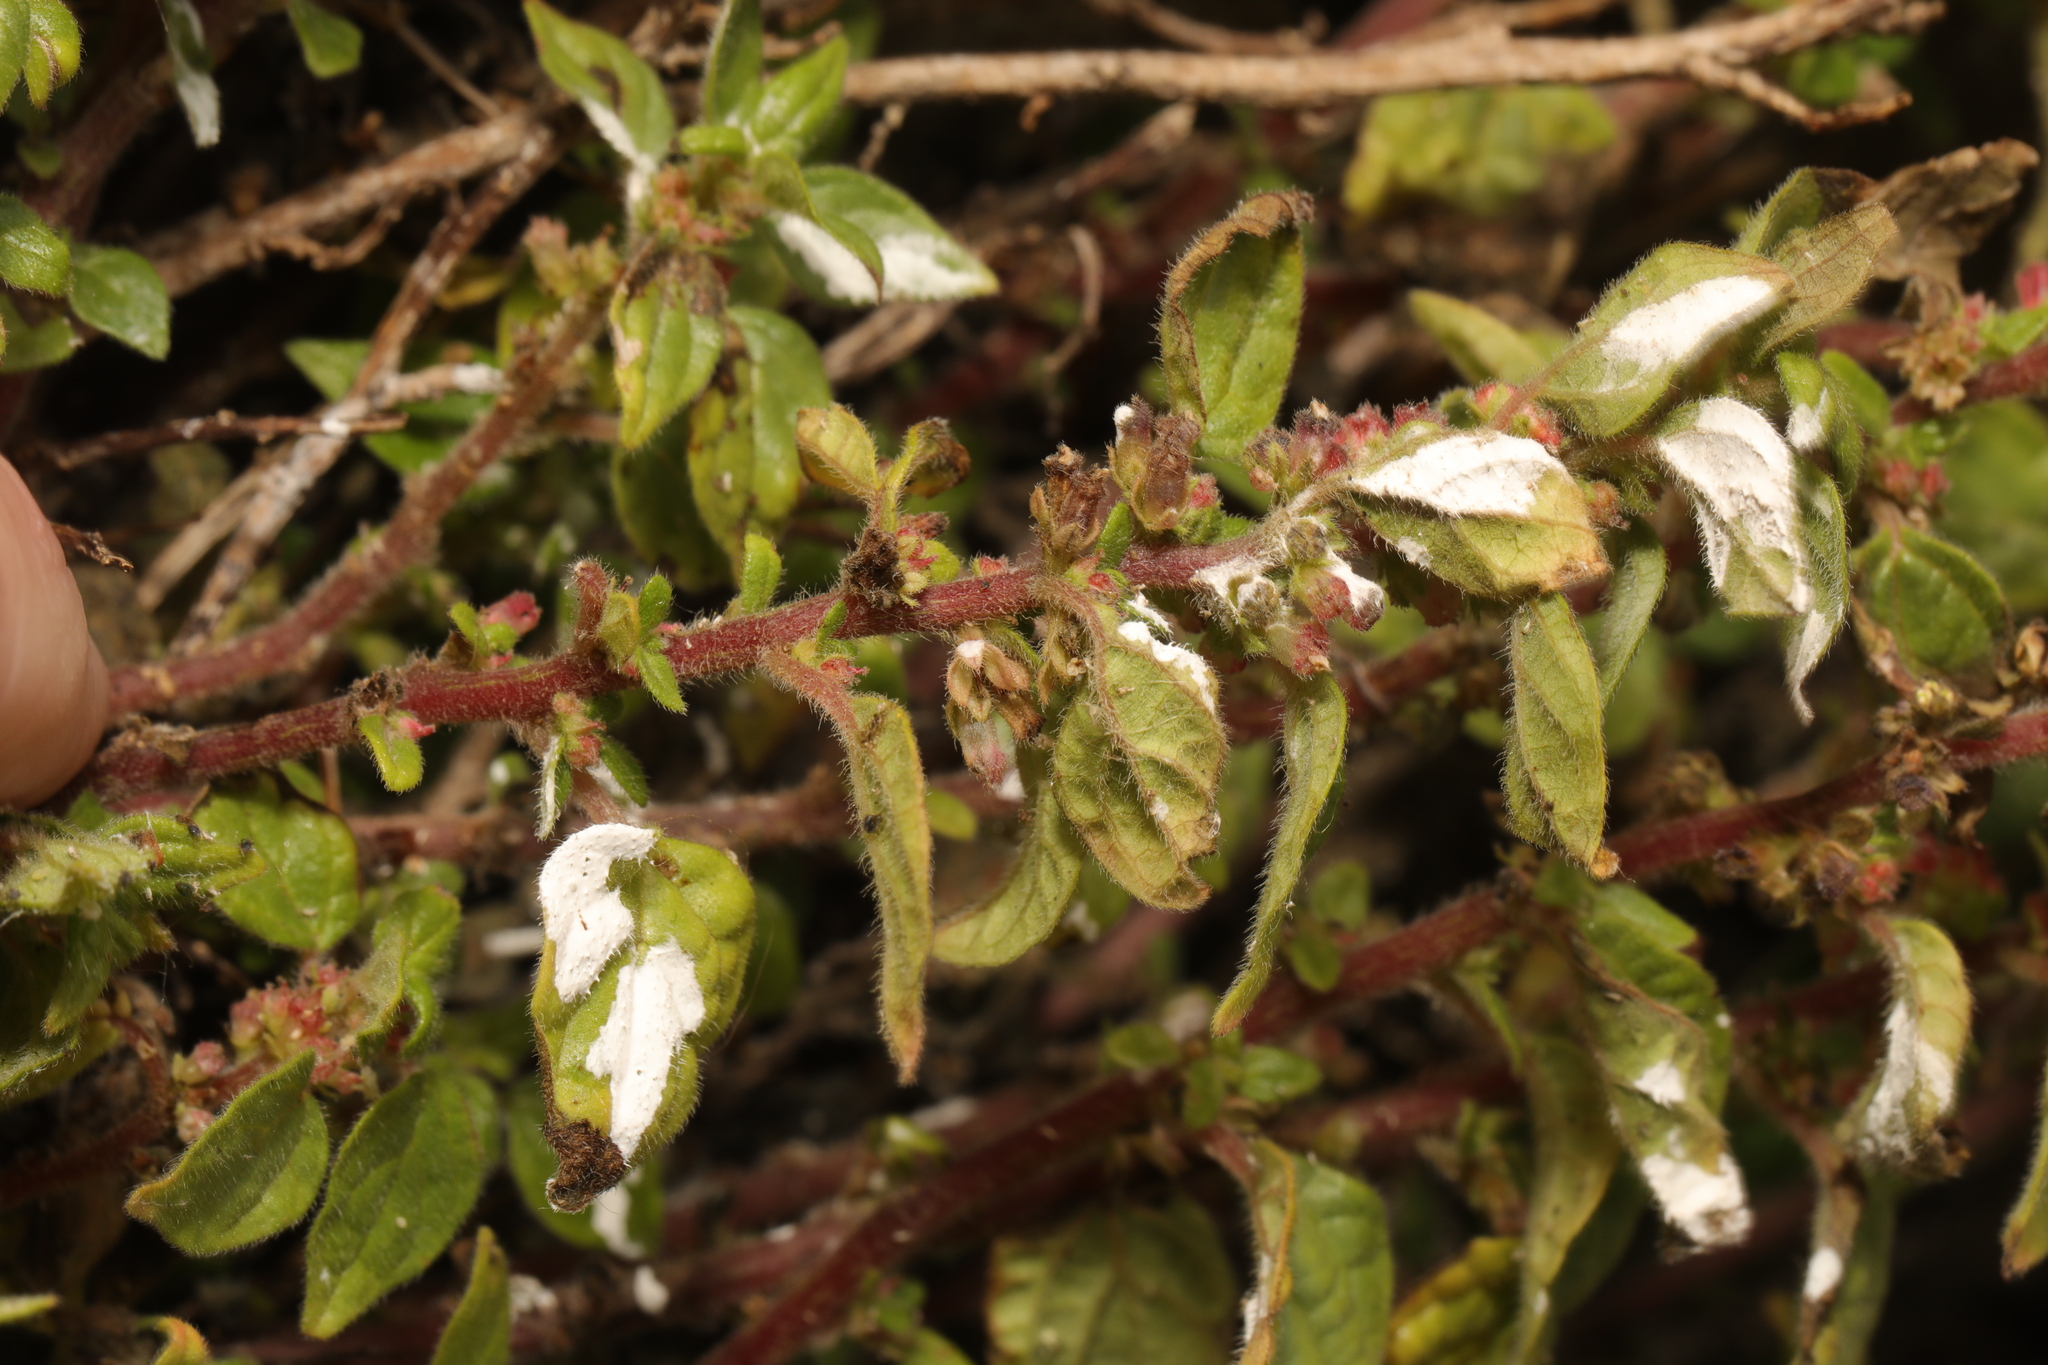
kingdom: Plantae
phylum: Tracheophyta
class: Magnoliopsida
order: Rosales
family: Urticaceae
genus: Parietaria
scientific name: Parietaria judaica
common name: Pellitory-of-the-wall
